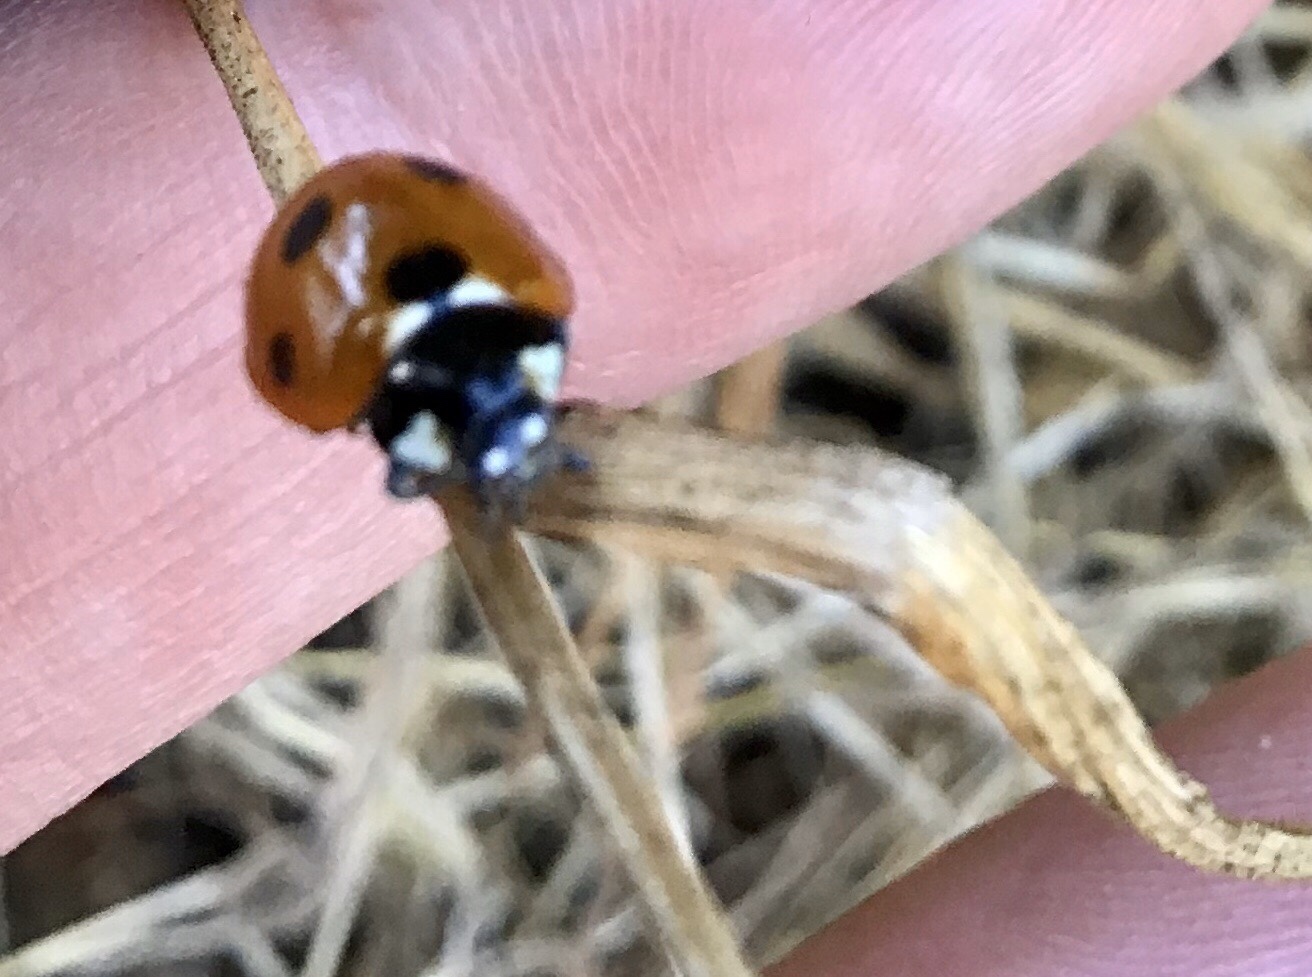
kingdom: Animalia
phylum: Arthropoda
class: Insecta
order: Coleoptera
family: Coccinellidae
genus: Coccinella
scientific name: Coccinella septempunctata
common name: Sevenspotted lady beetle
